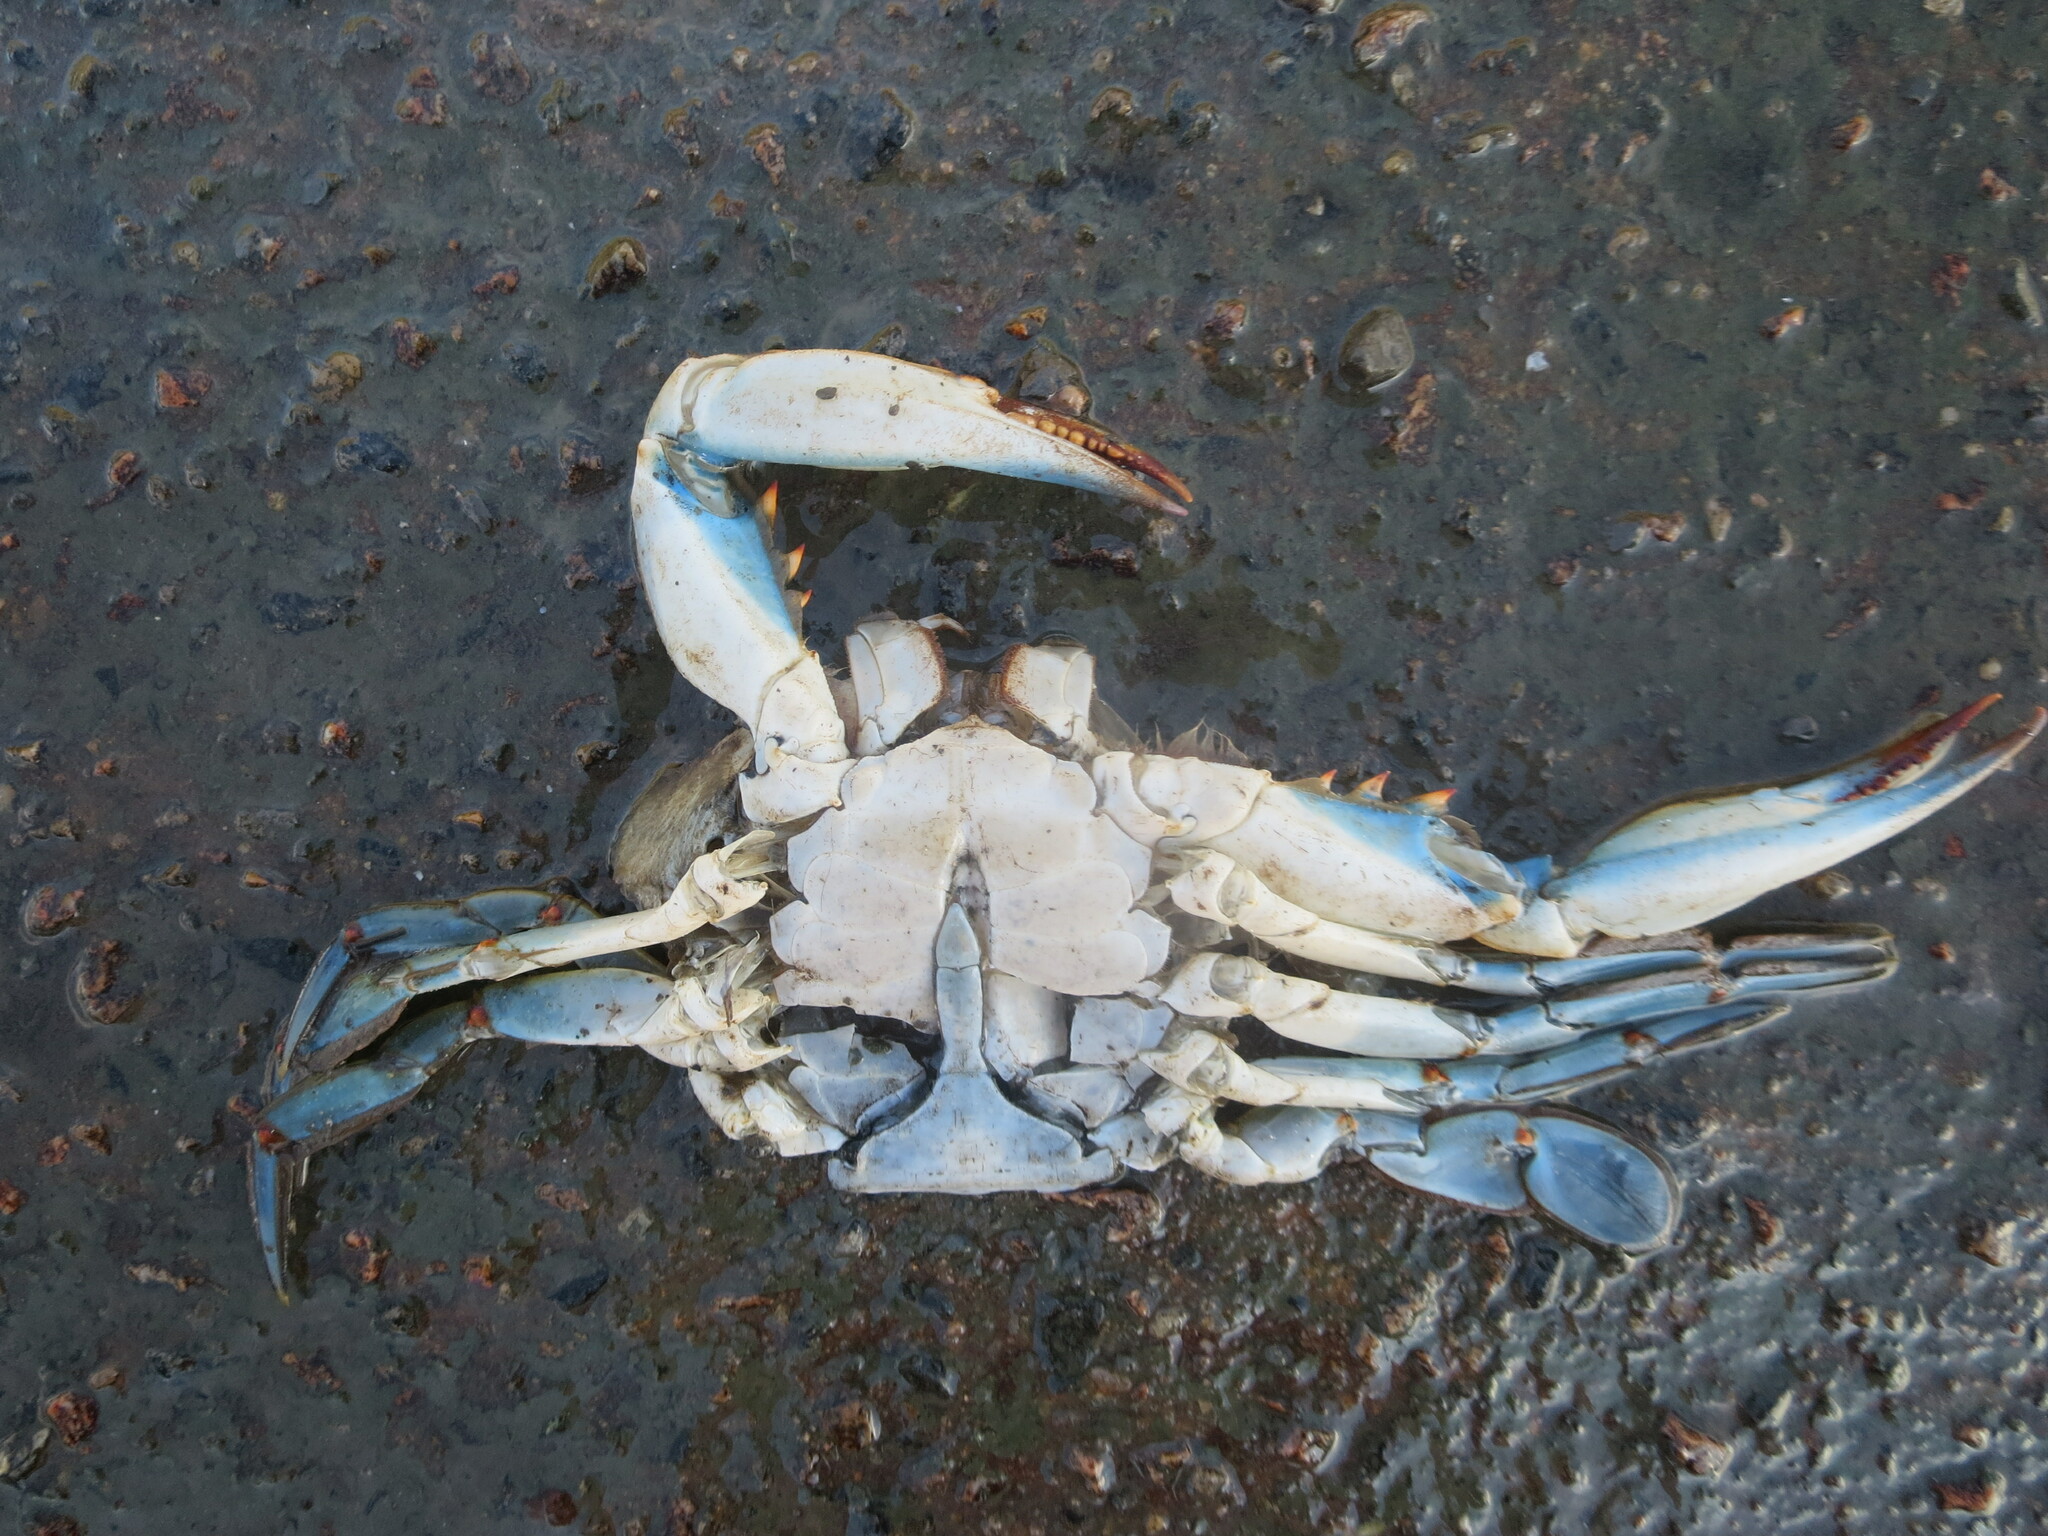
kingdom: Animalia
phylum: Arthropoda
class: Malacostraca
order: Decapoda
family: Portunidae
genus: Callinectes
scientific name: Callinectes sapidus
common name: Blue crab
